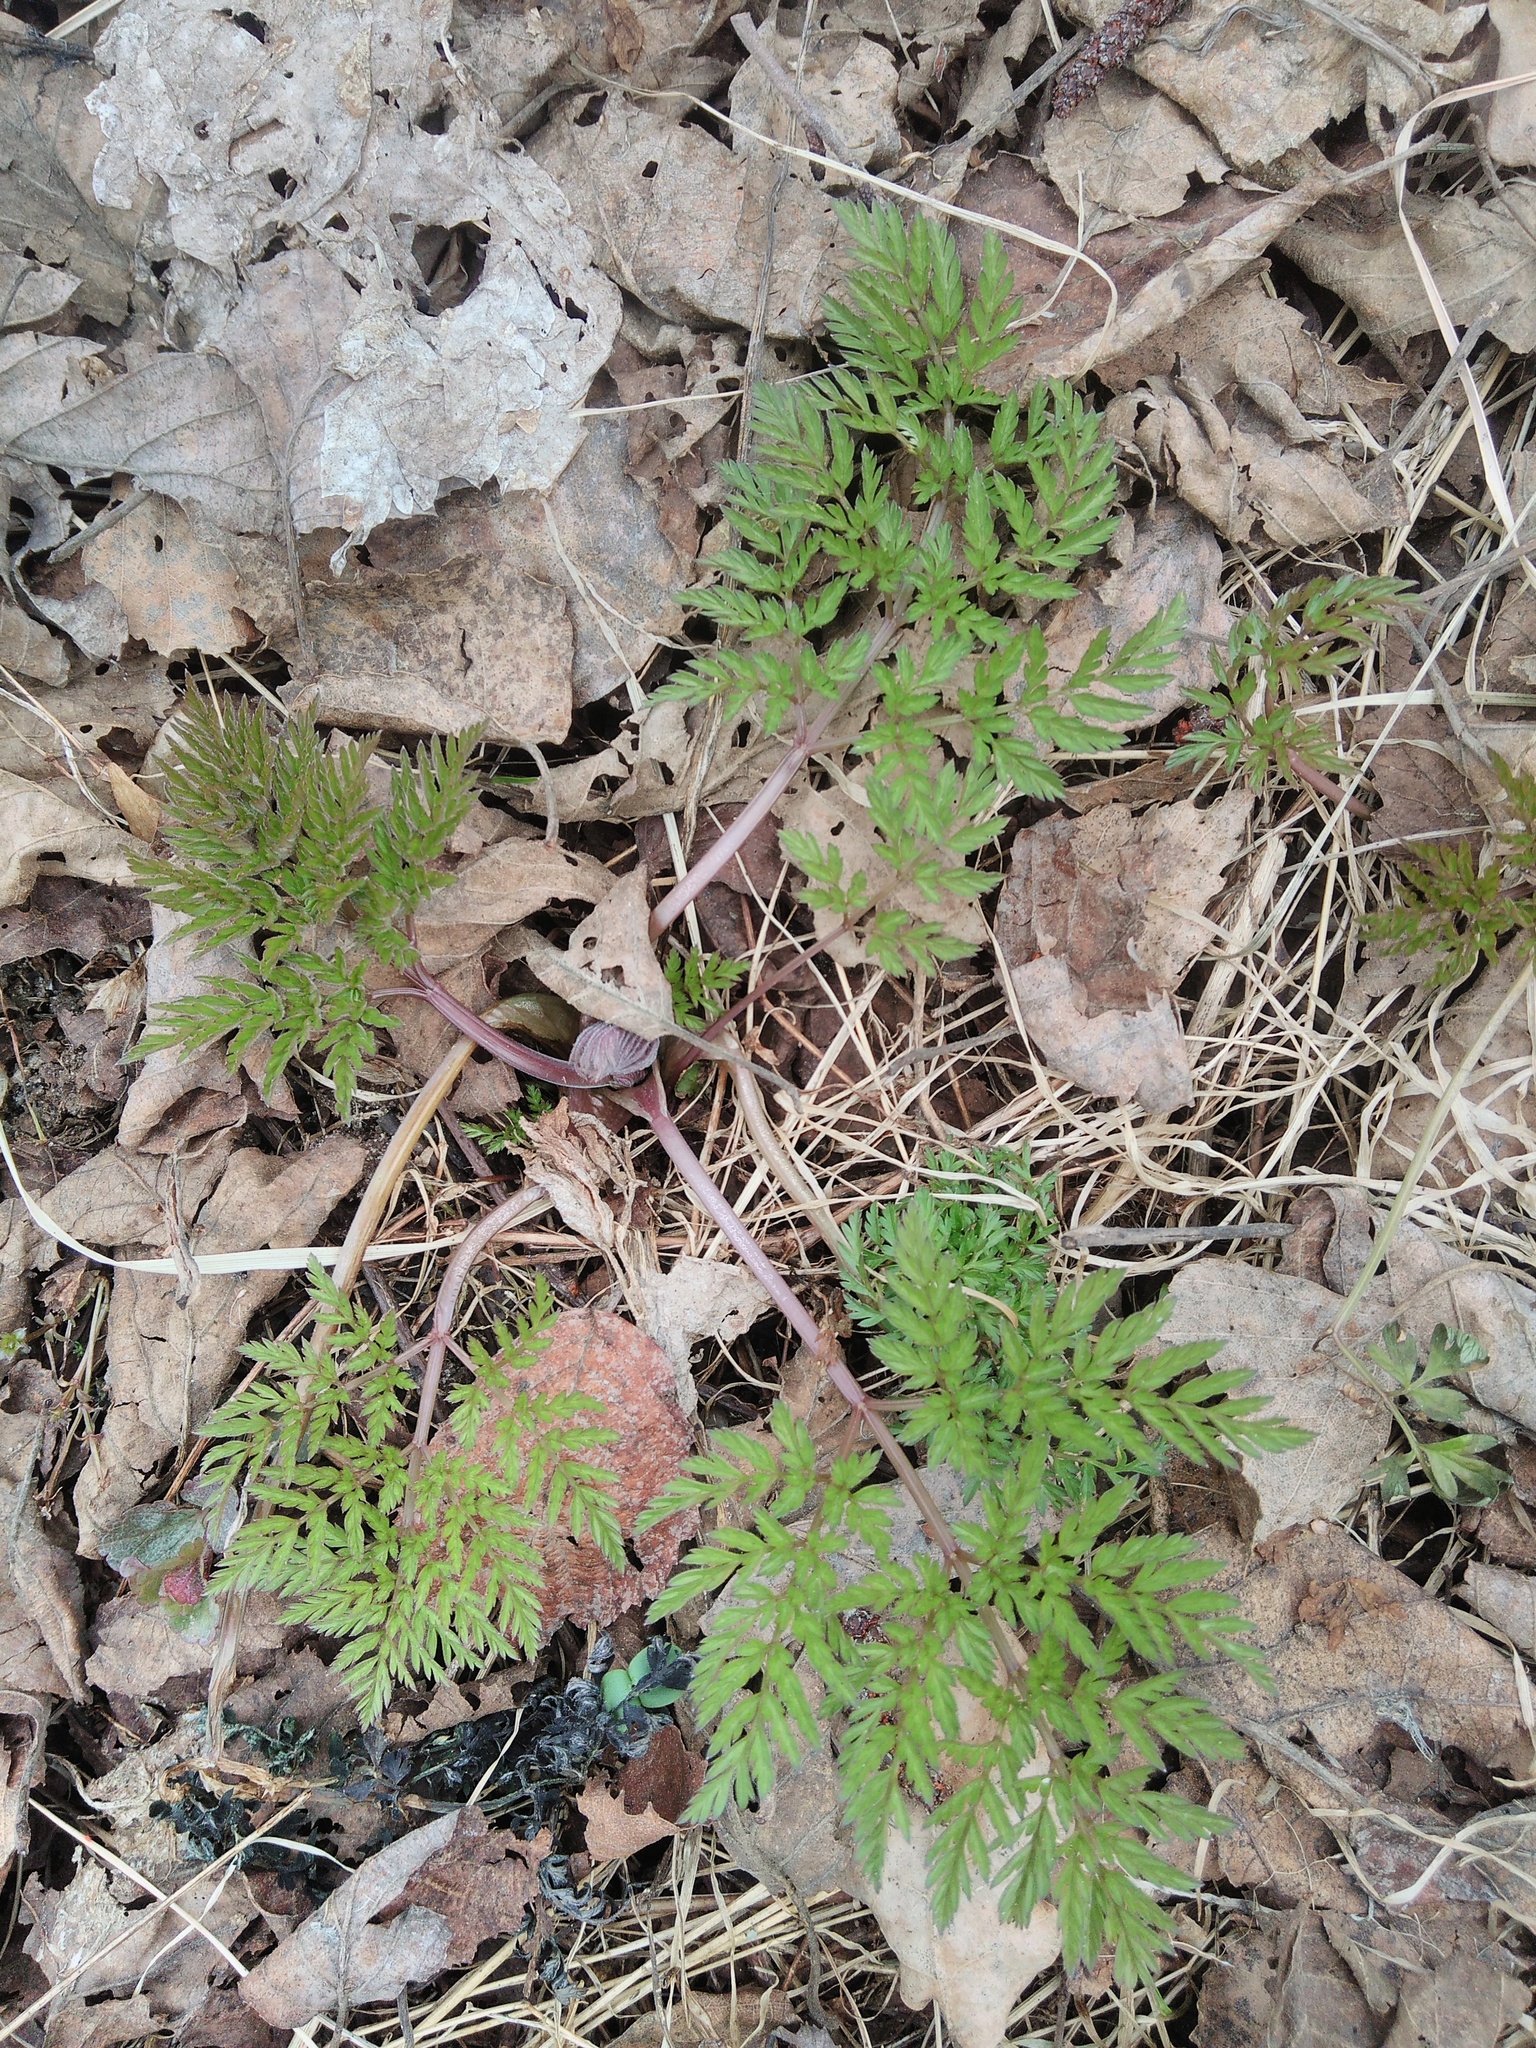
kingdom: Plantae
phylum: Tracheophyta
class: Magnoliopsida
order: Apiales
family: Apiaceae
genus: Conium
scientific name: Conium maculatum
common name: Hemlock
